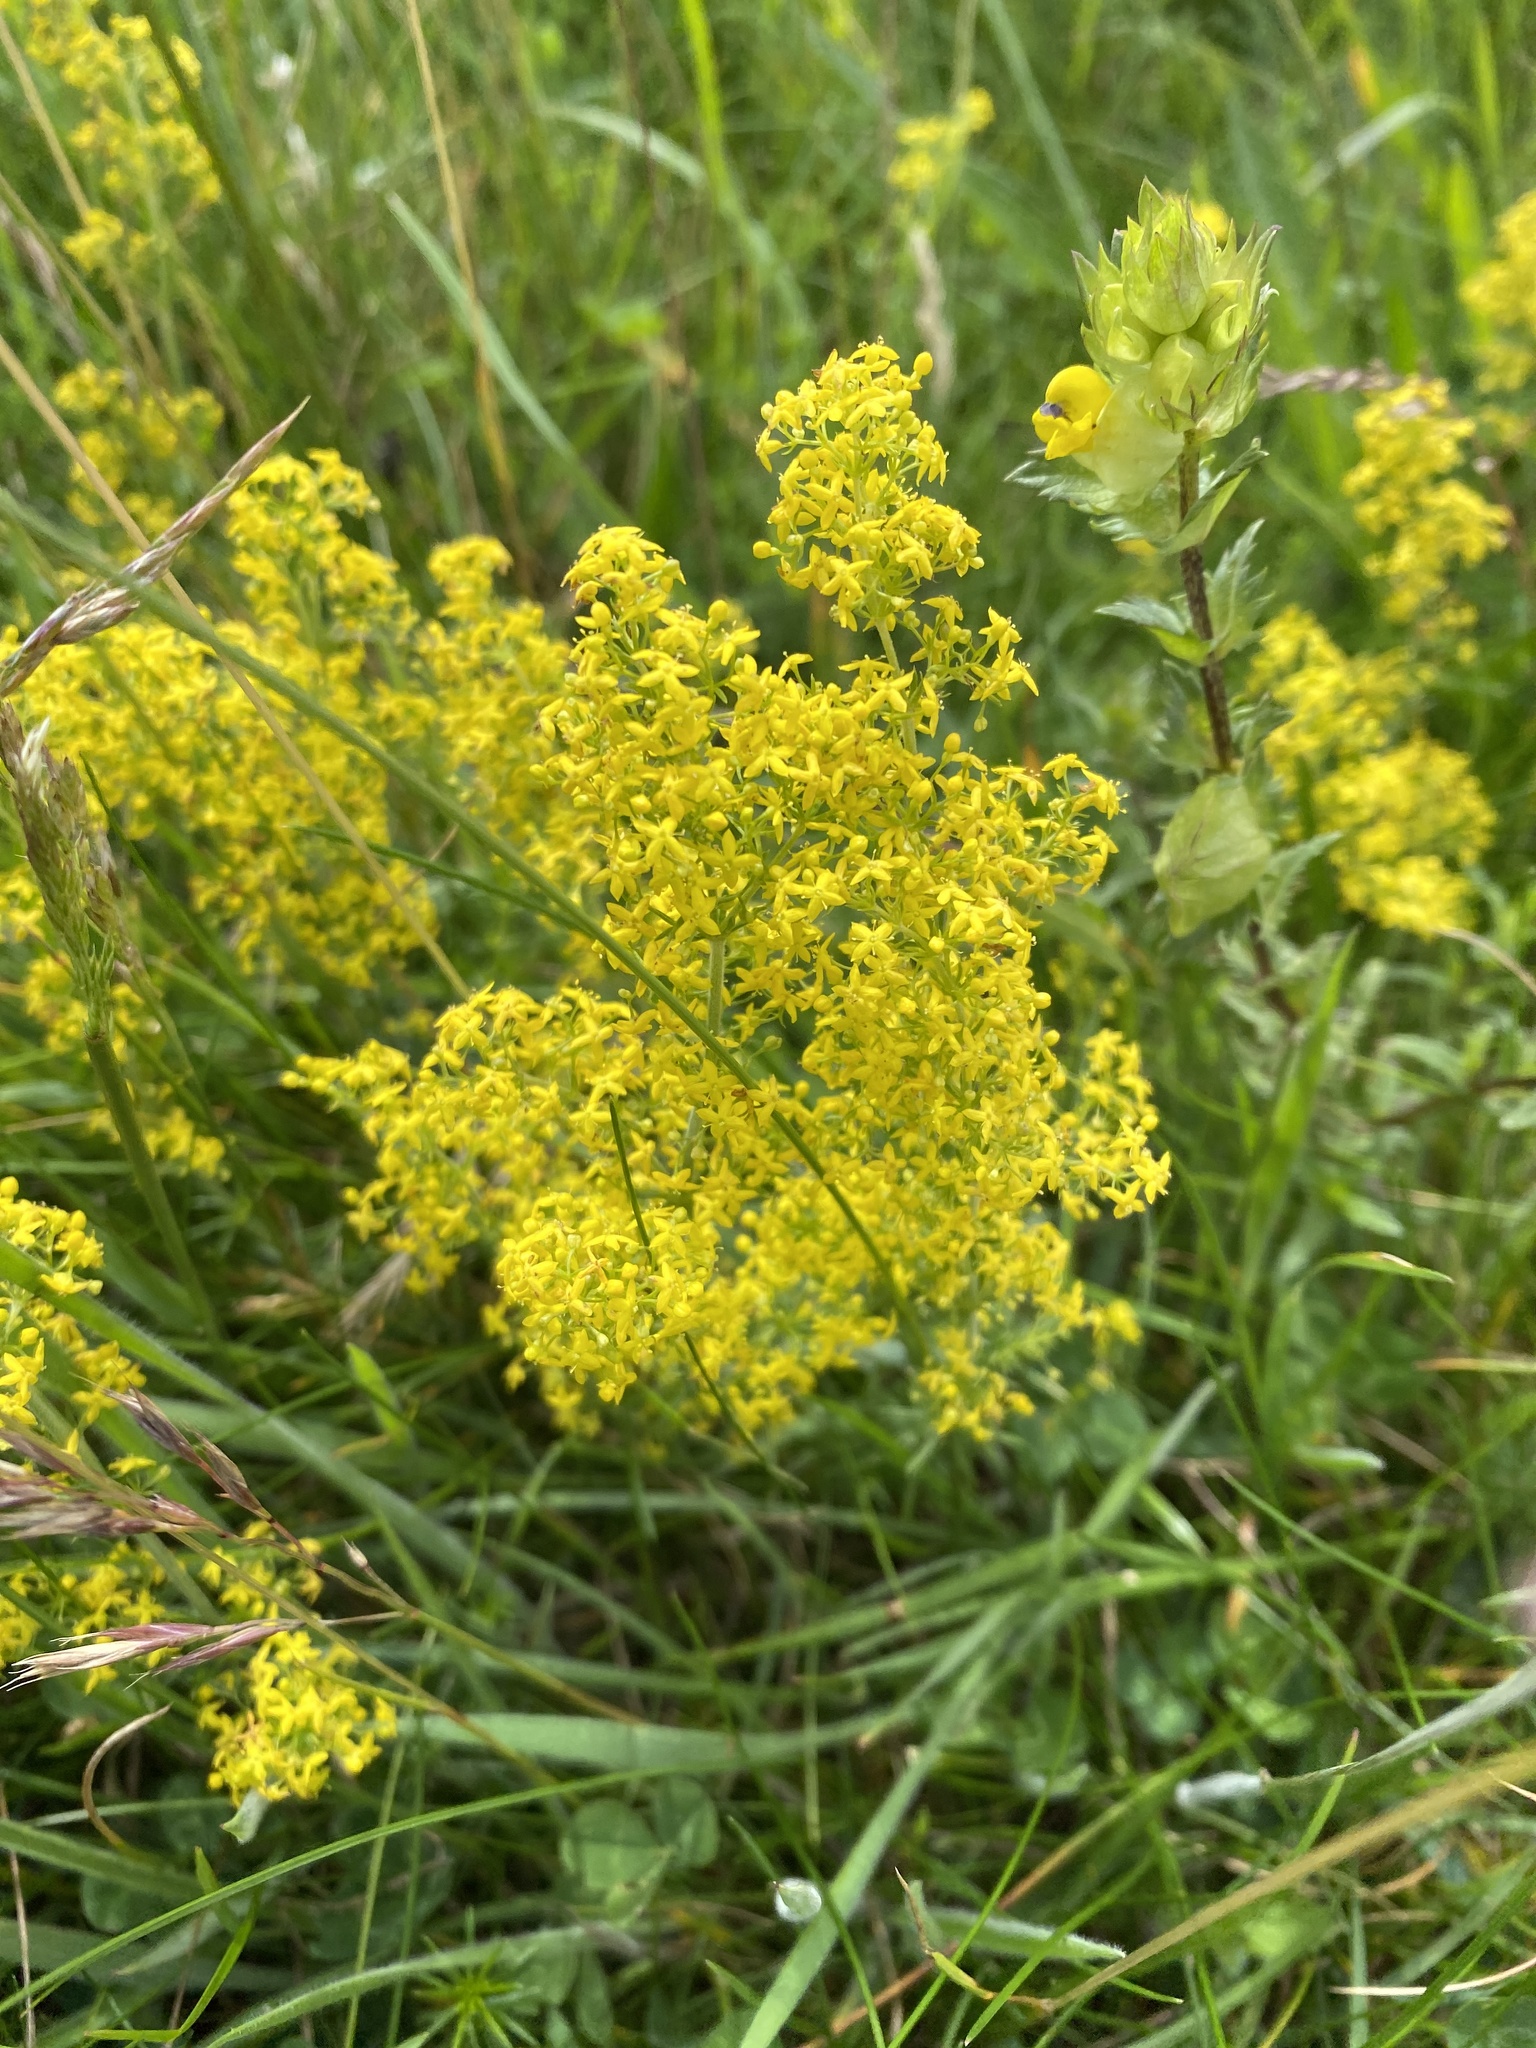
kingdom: Plantae
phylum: Tracheophyta
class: Magnoliopsida
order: Gentianales
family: Rubiaceae
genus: Galium
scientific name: Galium verum
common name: Lady's bedstraw
